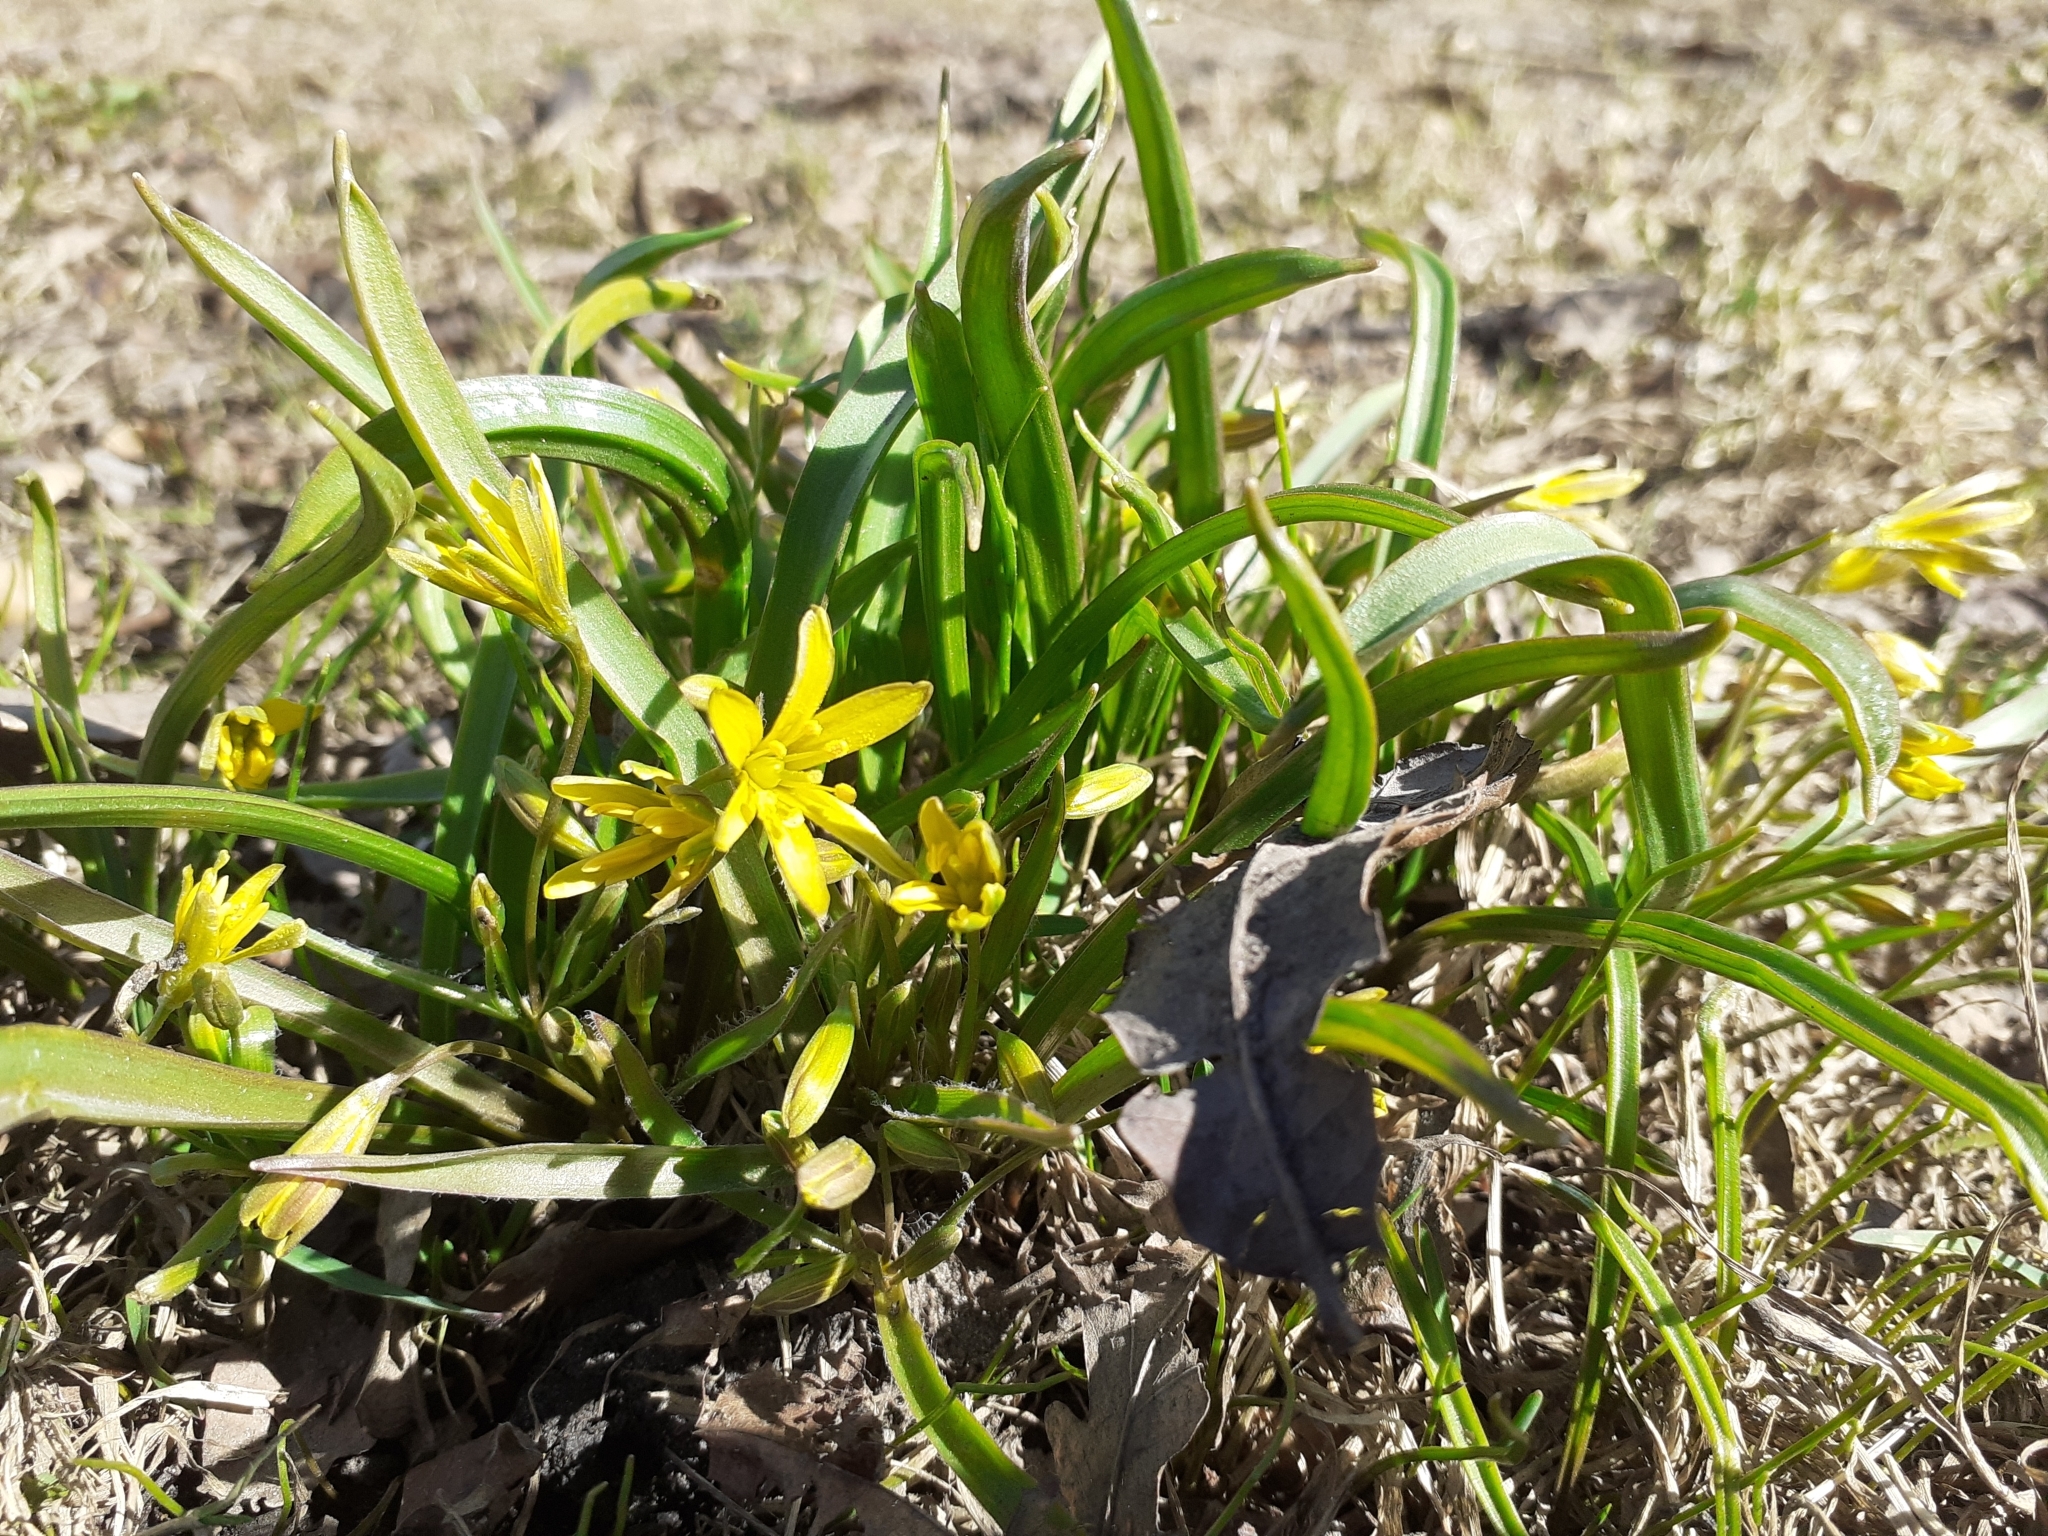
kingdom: Plantae
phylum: Tracheophyta
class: Liliopsida
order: Liliales
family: Liliaceae
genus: Gagea
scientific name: Gagea lutea
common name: Yellow star-of-bethlehem
